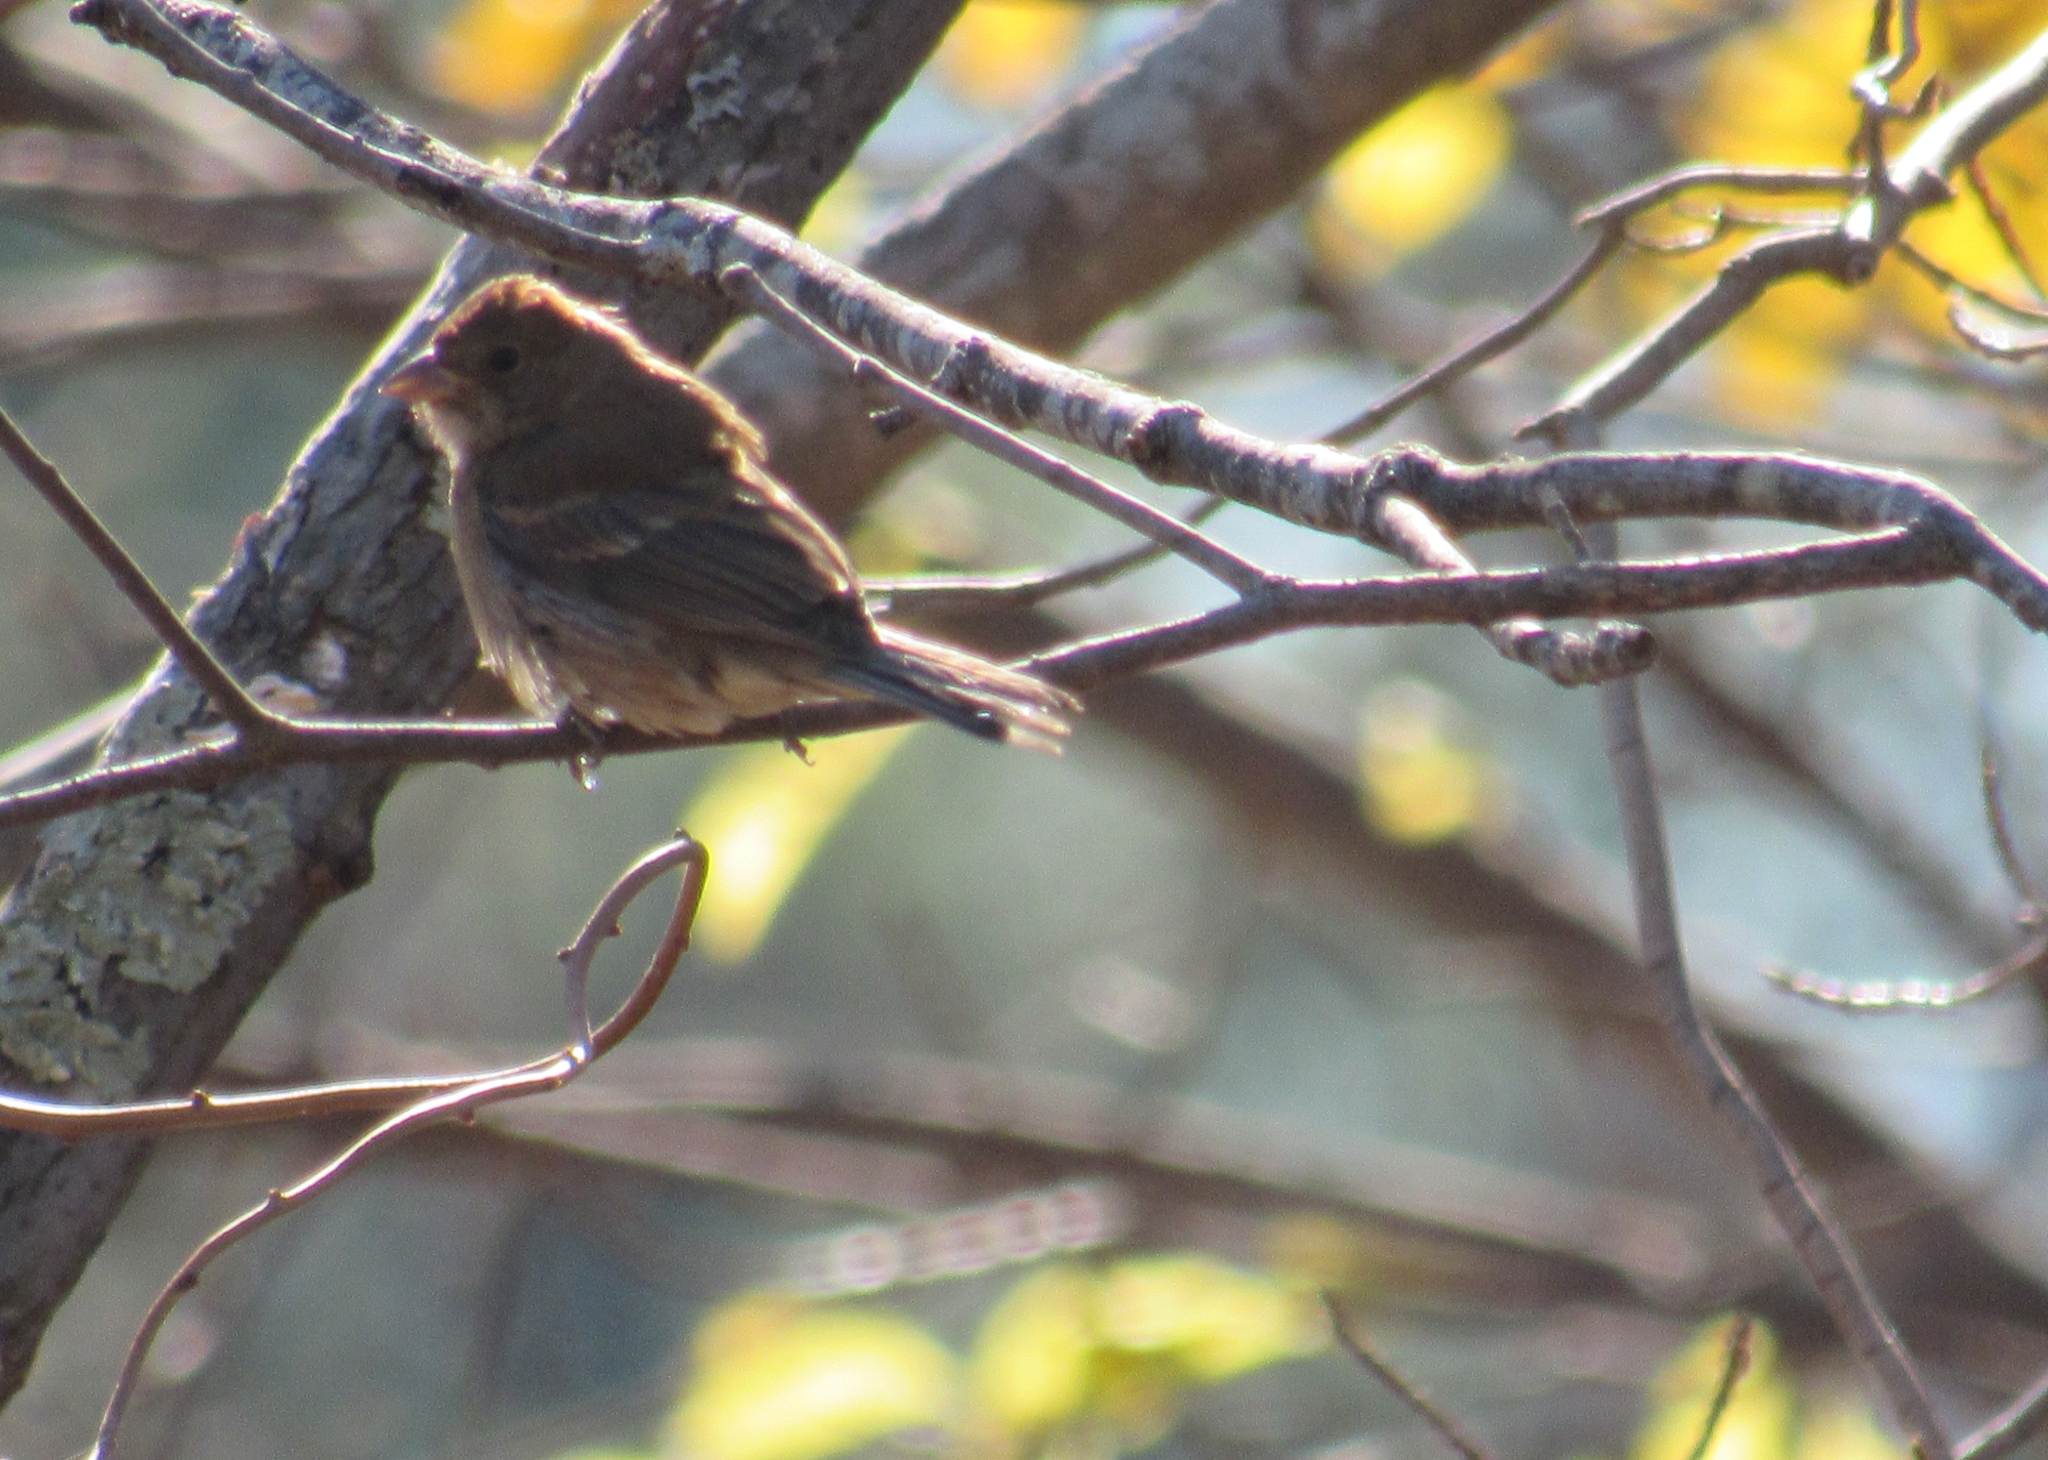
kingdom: Animalia
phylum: Chordata
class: Aves
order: Passeriformes
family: Cardinalidae
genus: Passerina
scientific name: Passerina cyanea
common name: Indigo bunting
